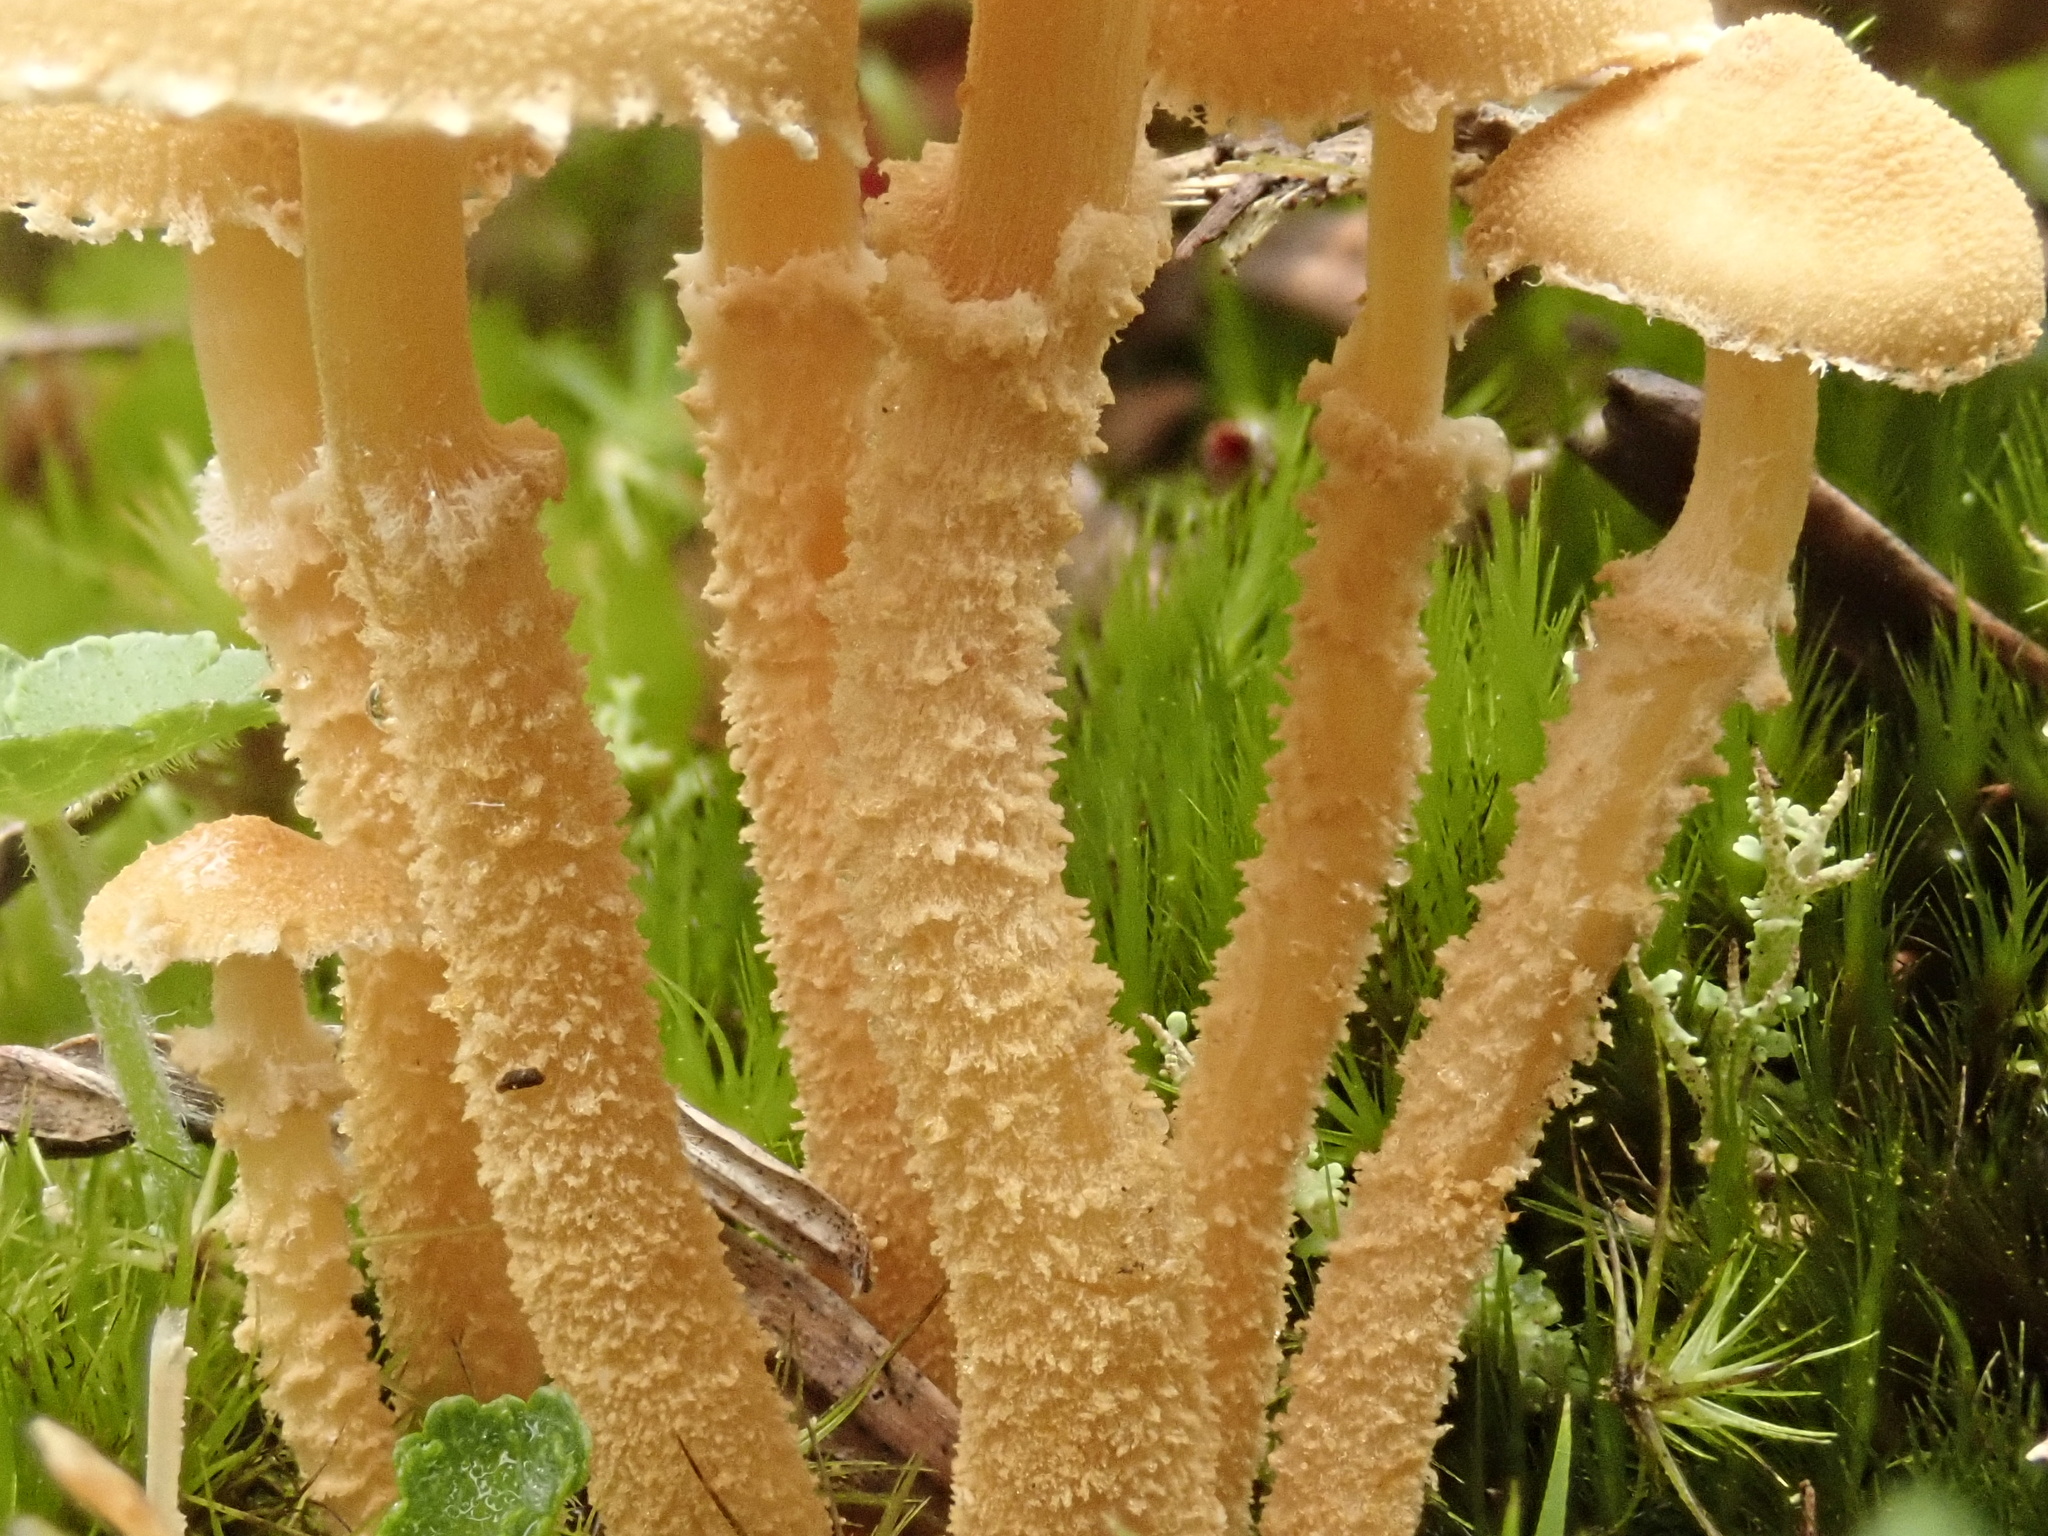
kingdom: Fungi
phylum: Basidiomycota
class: Agaricomycetes
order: Agaricales
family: Tricholomataceae
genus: Cystoderma
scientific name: Cystoderma muscicola
